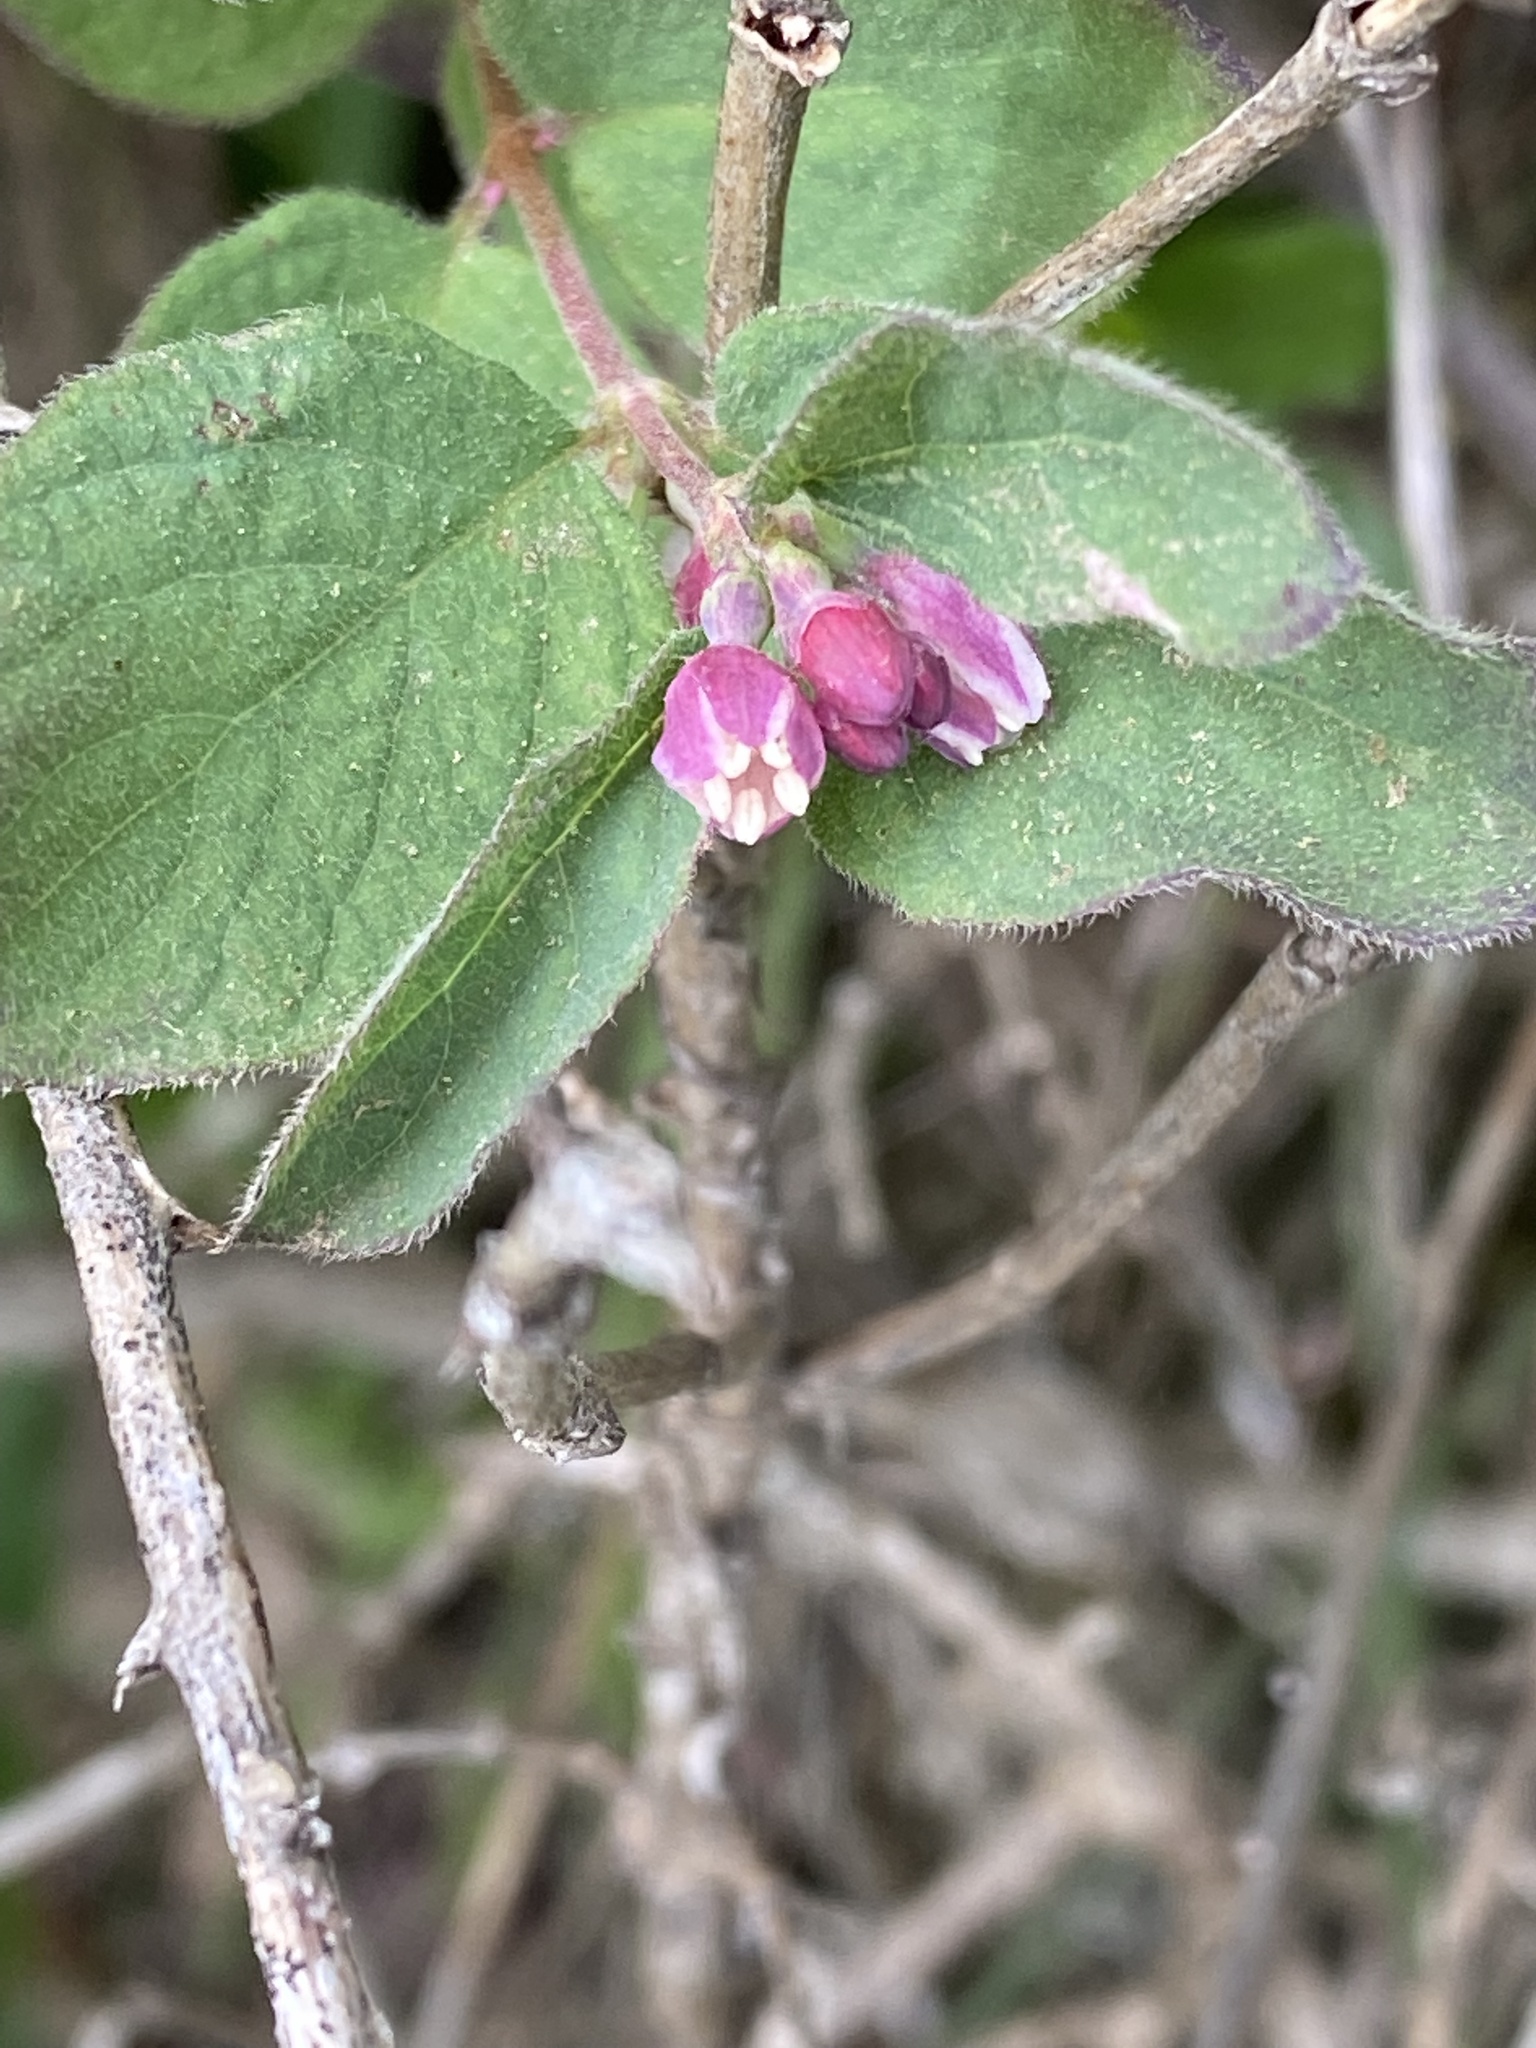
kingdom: Plantae
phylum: Tracheophyta
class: Magnoliopsida
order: Dipsacales
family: Caprifoliaceae
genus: Symphoricarpos
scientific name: Symphoricarpos mollis
